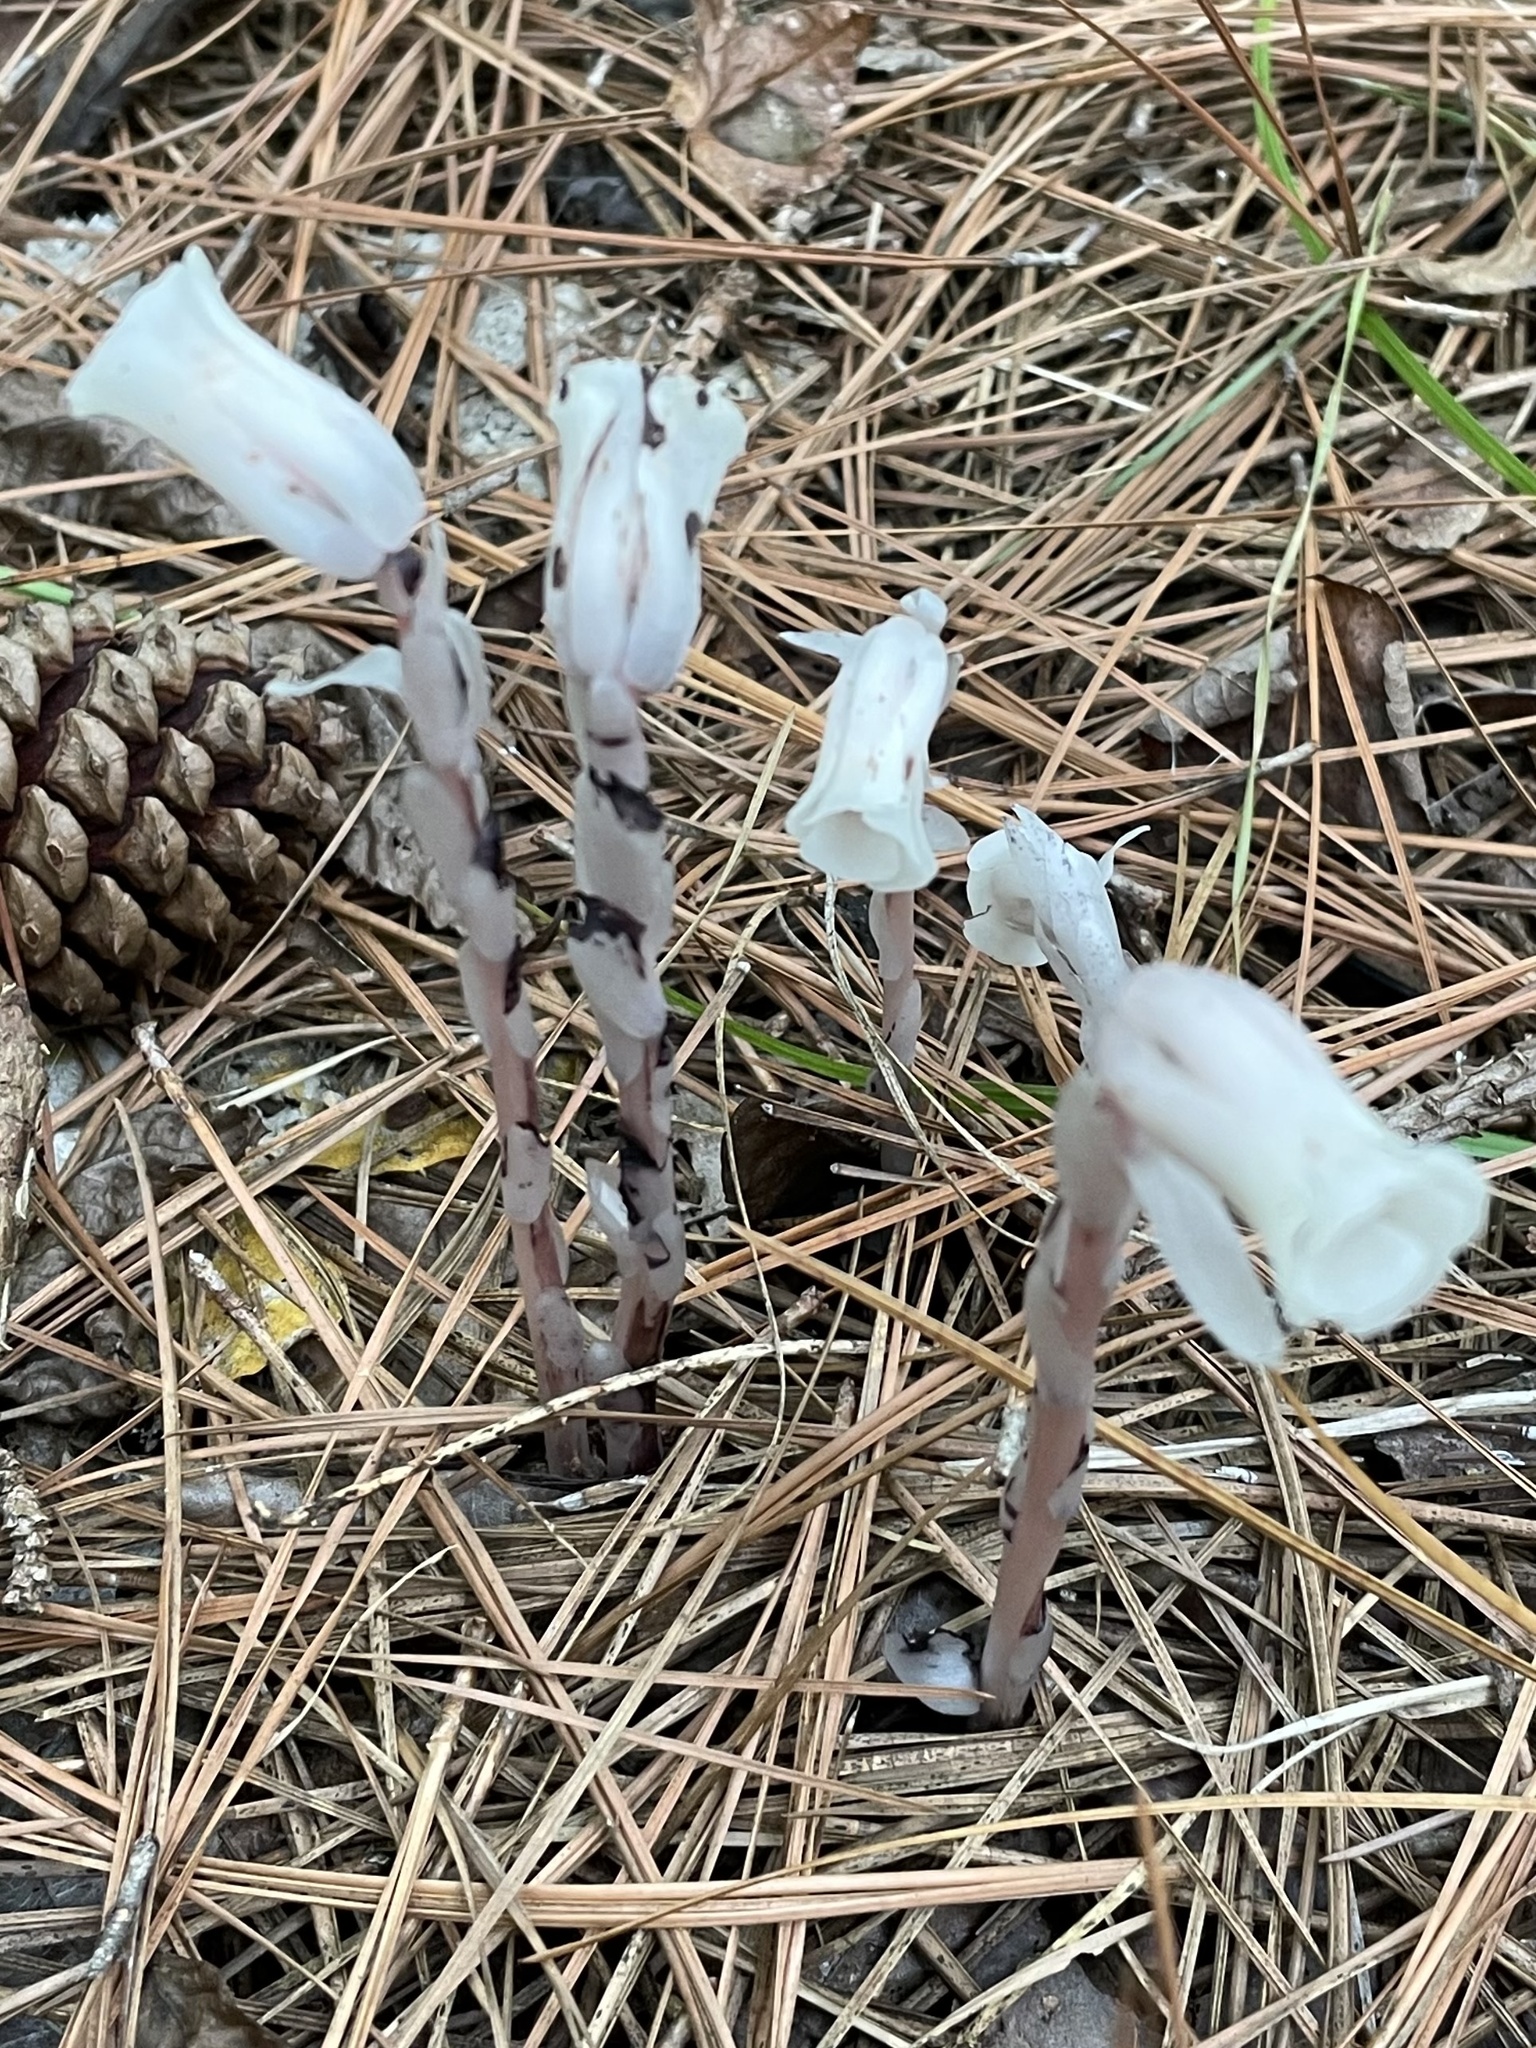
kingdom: Plantae
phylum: Tracheophyta
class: Magnoliopsida
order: Ericales
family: Ericaceae
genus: Monotropa
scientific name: Monotropa uniflora
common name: Convulsion root
